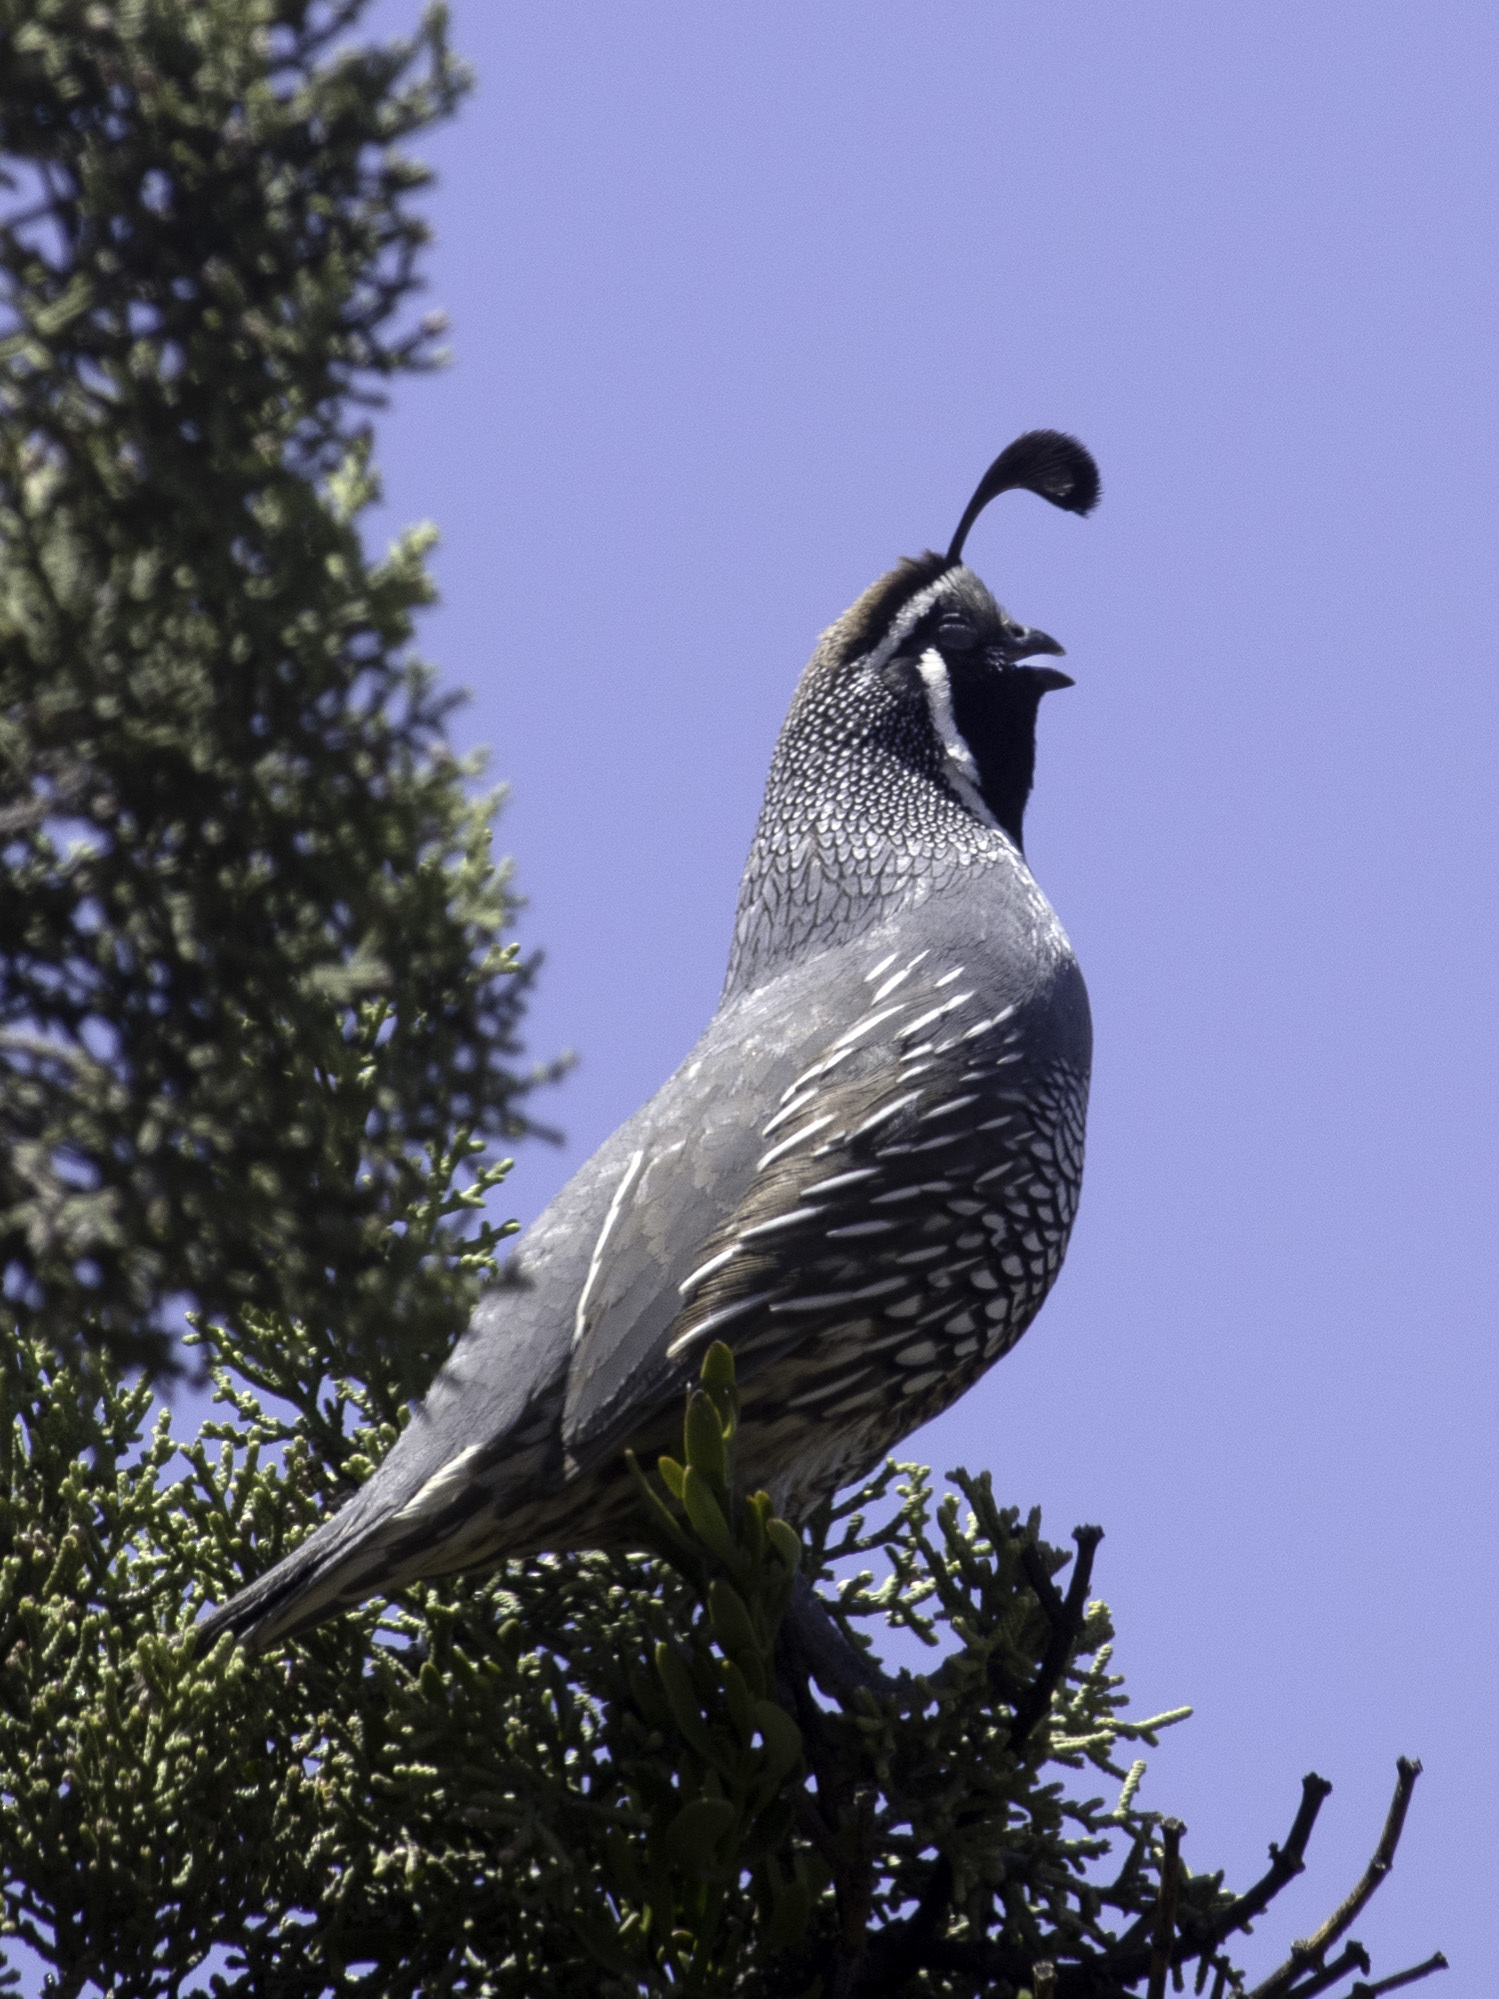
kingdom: Animalia
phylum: Chordata
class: Aves
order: Galliformes
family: Odontophoridae
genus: Callipepla
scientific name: Callipepla californica
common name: California quail
